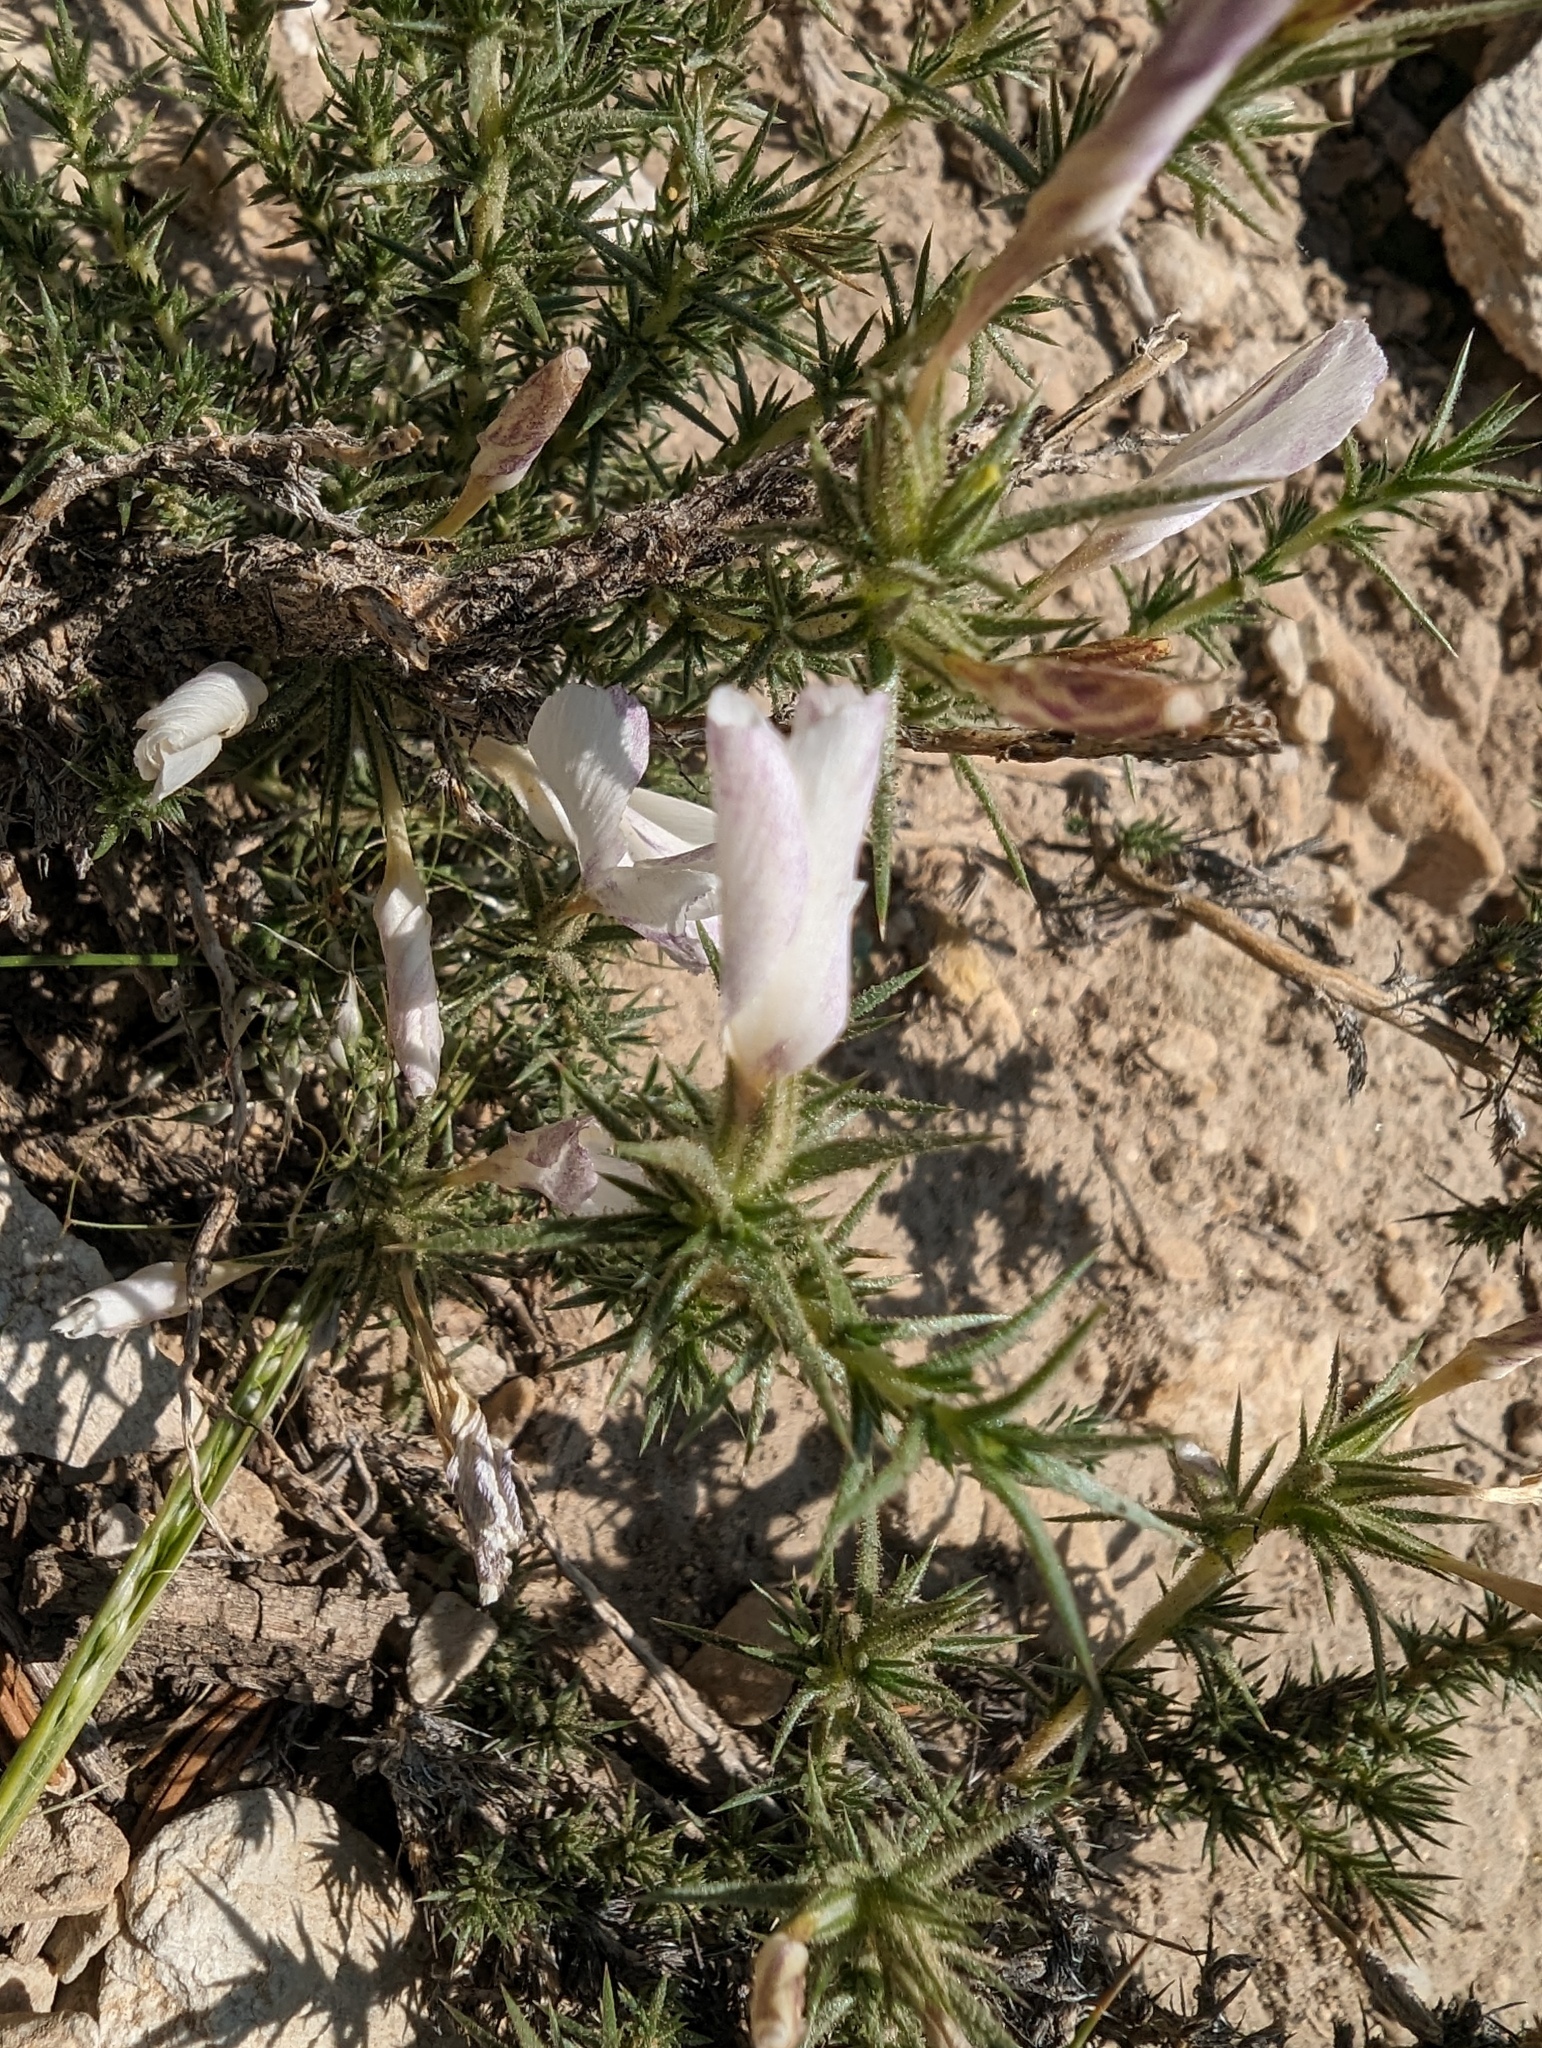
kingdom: Plantae
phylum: Tracheophyta
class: Magnoliopsida
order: Ericales
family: Polemoniaceae
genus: Linanthus
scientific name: Linanthus pungens
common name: Granite prickly phlox
